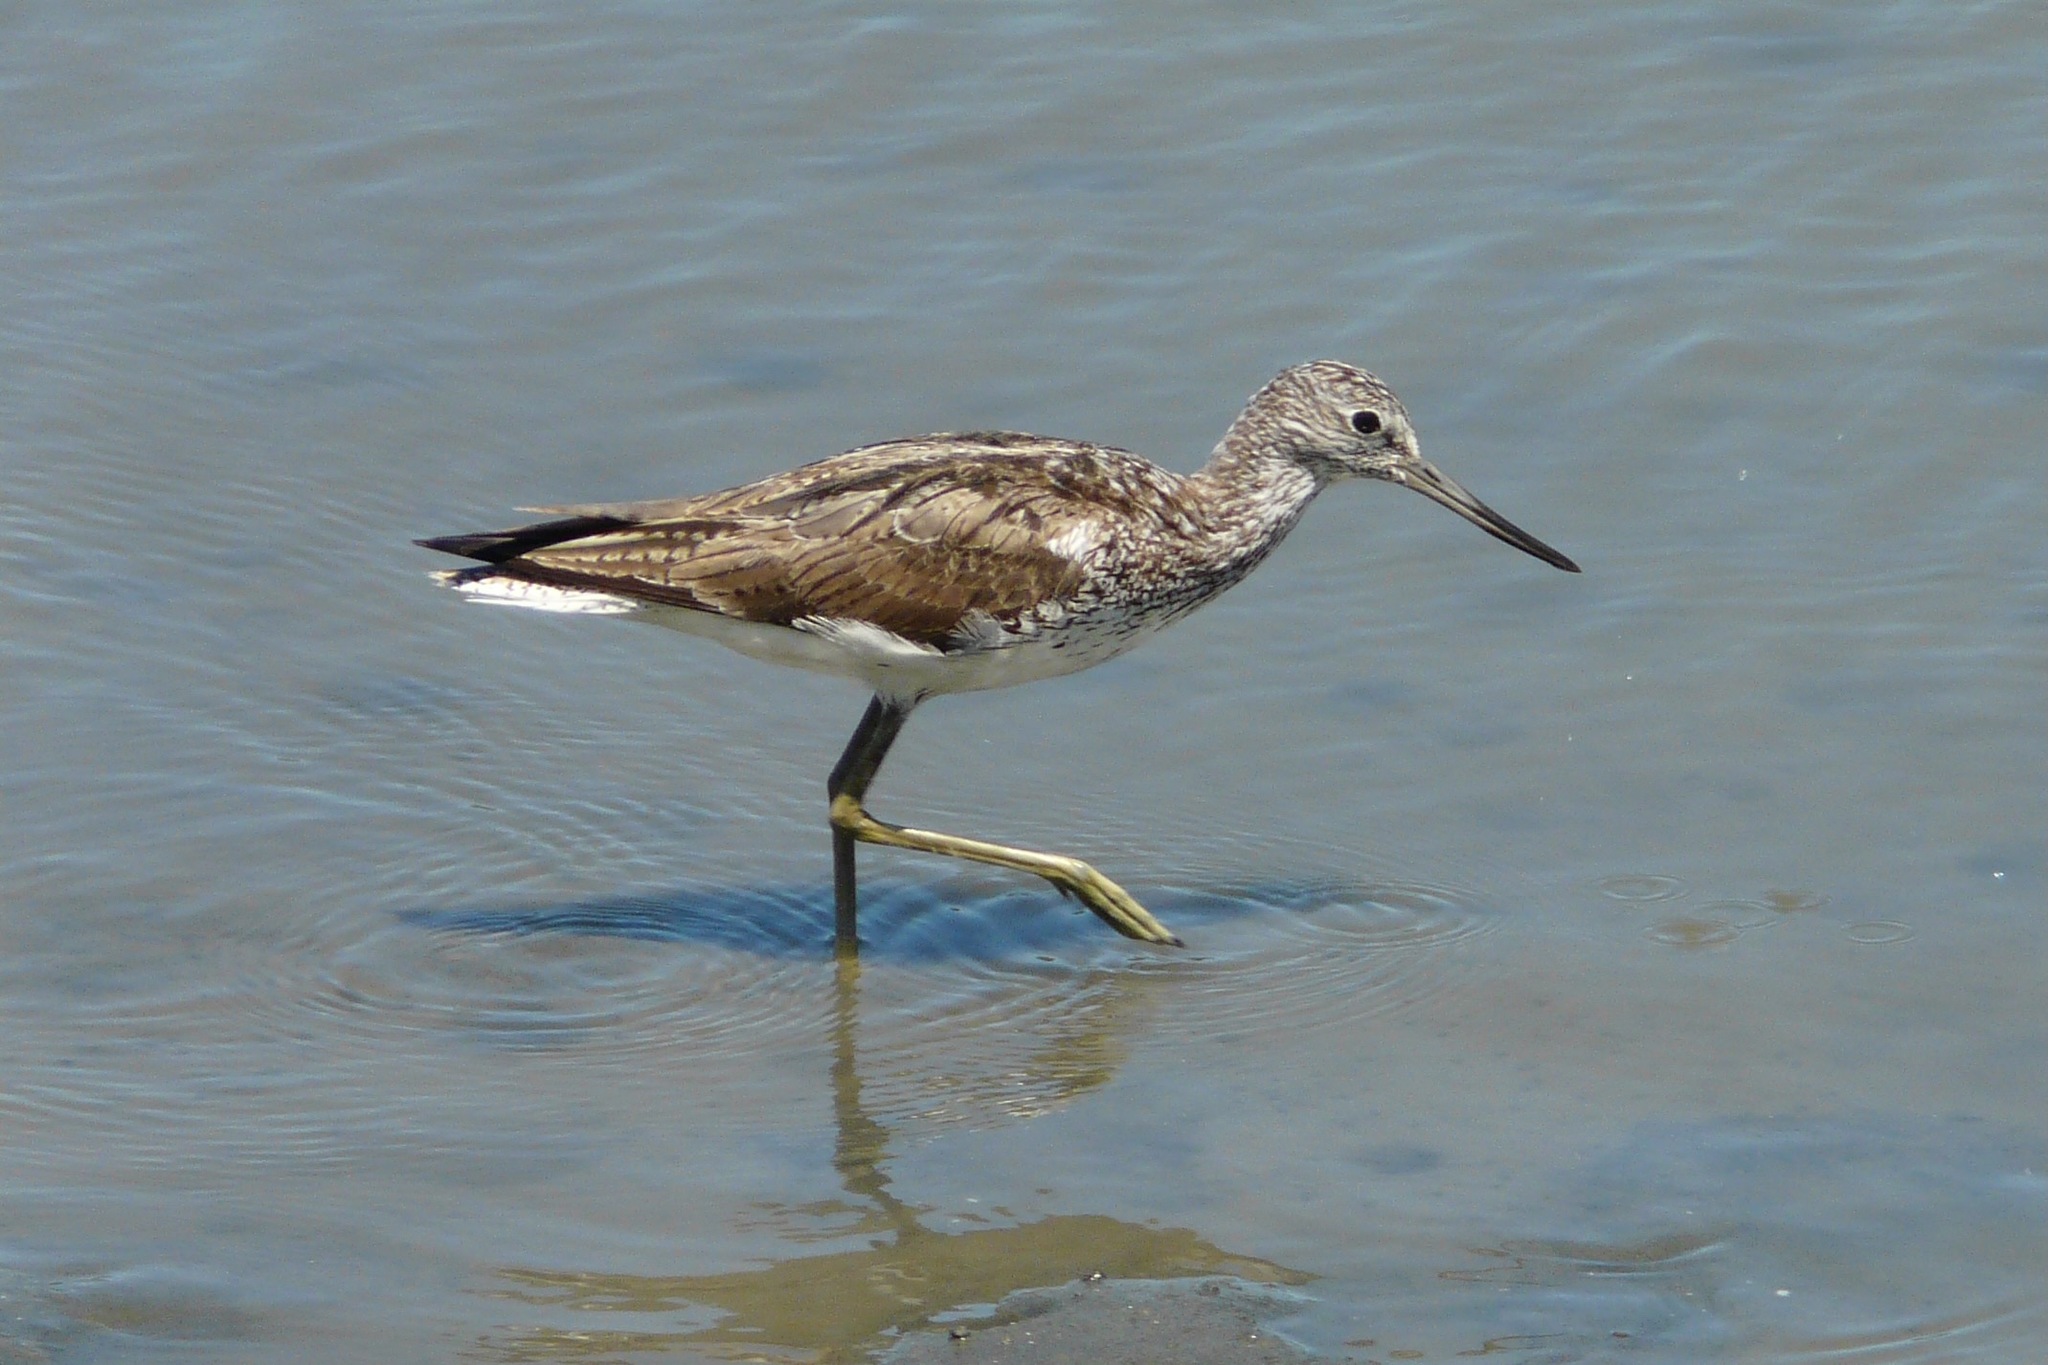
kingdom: Animalia
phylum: Chordata
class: Aves
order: Charadriiformes
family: Scolopacidae
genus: Tringa
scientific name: Tringa nebularia
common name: Common greenshank
